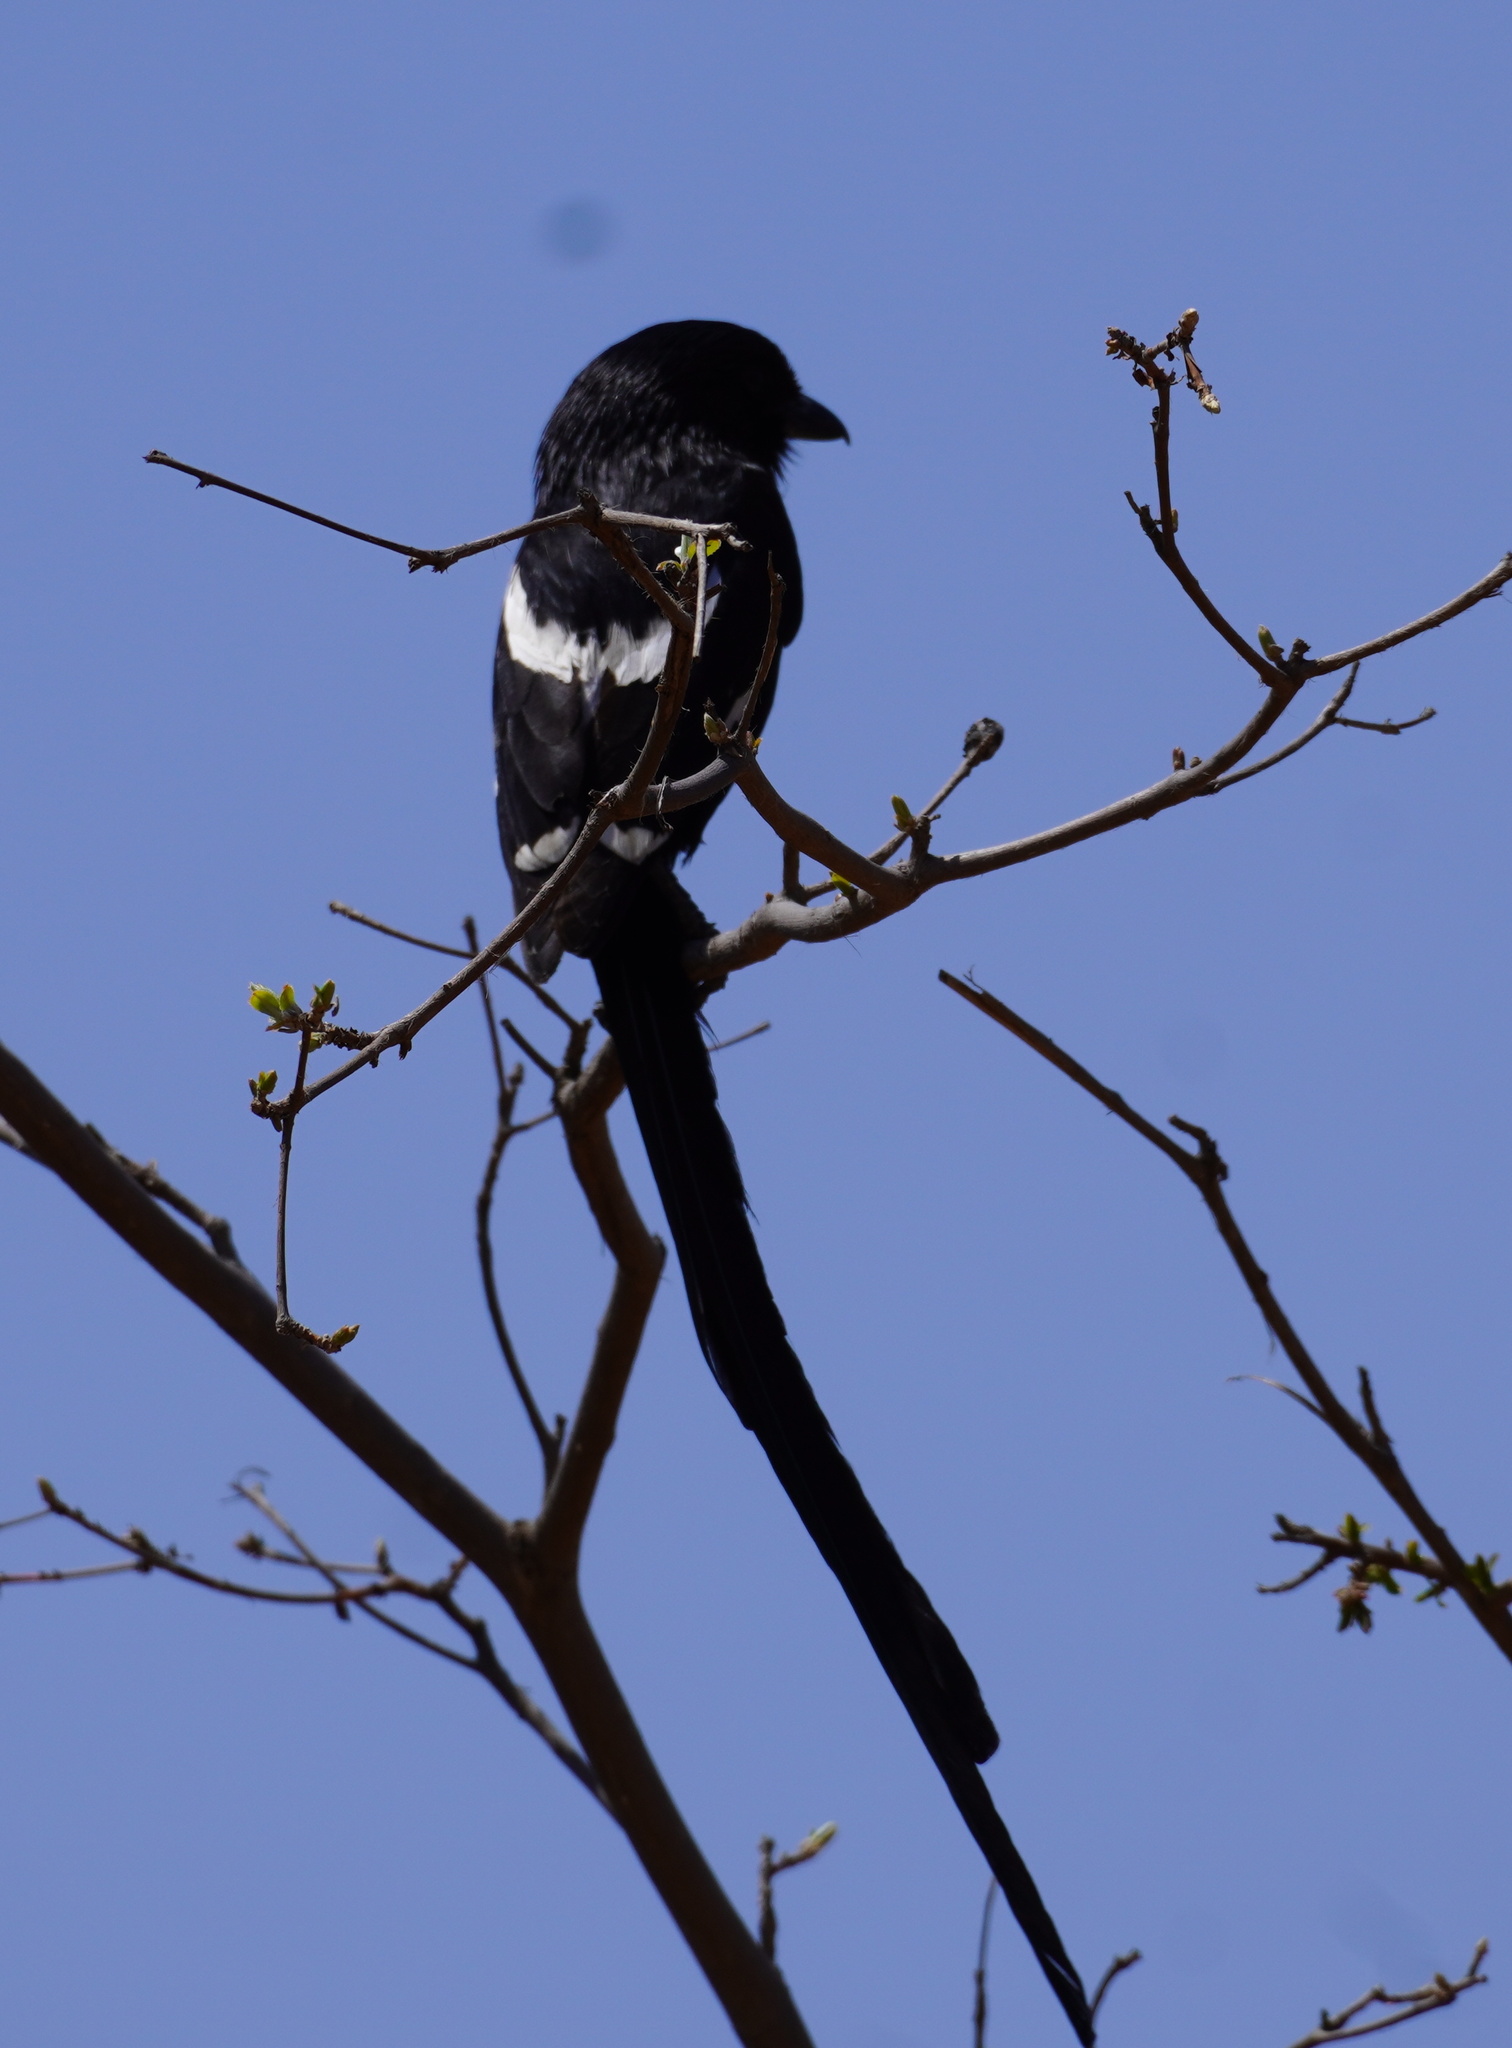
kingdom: Animalia
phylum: Chordata
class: Aves
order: Passeriformes
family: Laniidae
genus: Urolestes
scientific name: Urolestes melanoleucus
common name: Magpie shrike
